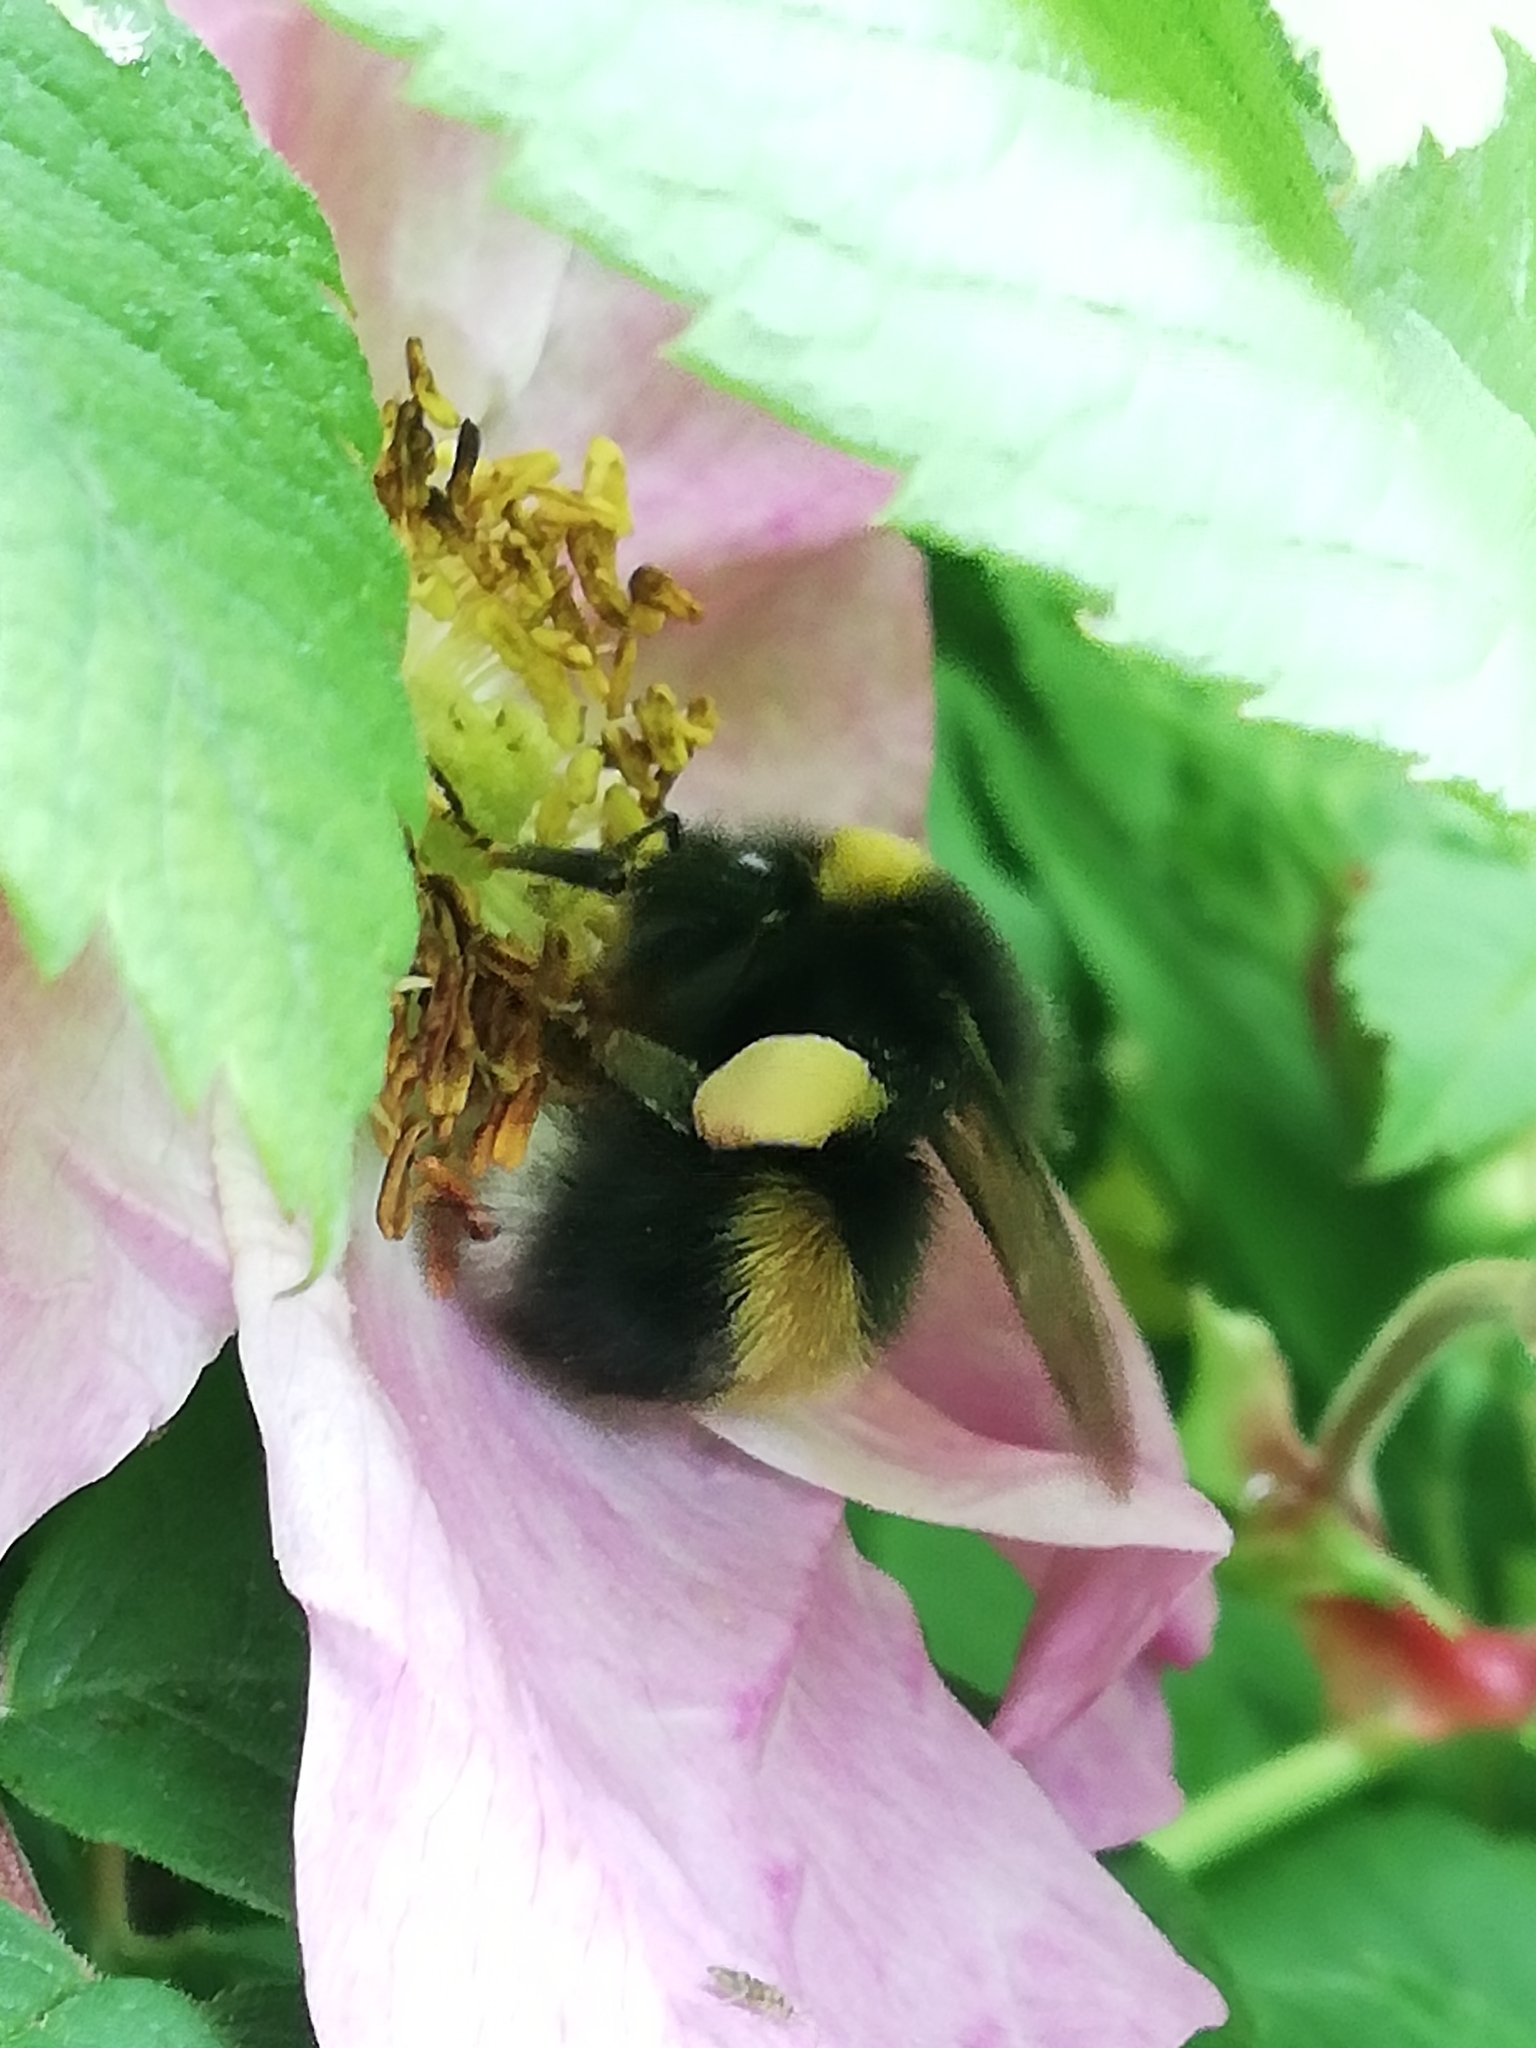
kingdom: Animalia
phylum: Arthropoda
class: Insecta
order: Hymenoptera
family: Apidae
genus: Bombus
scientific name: Bombus lucorum
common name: White-tailed bumblebee
